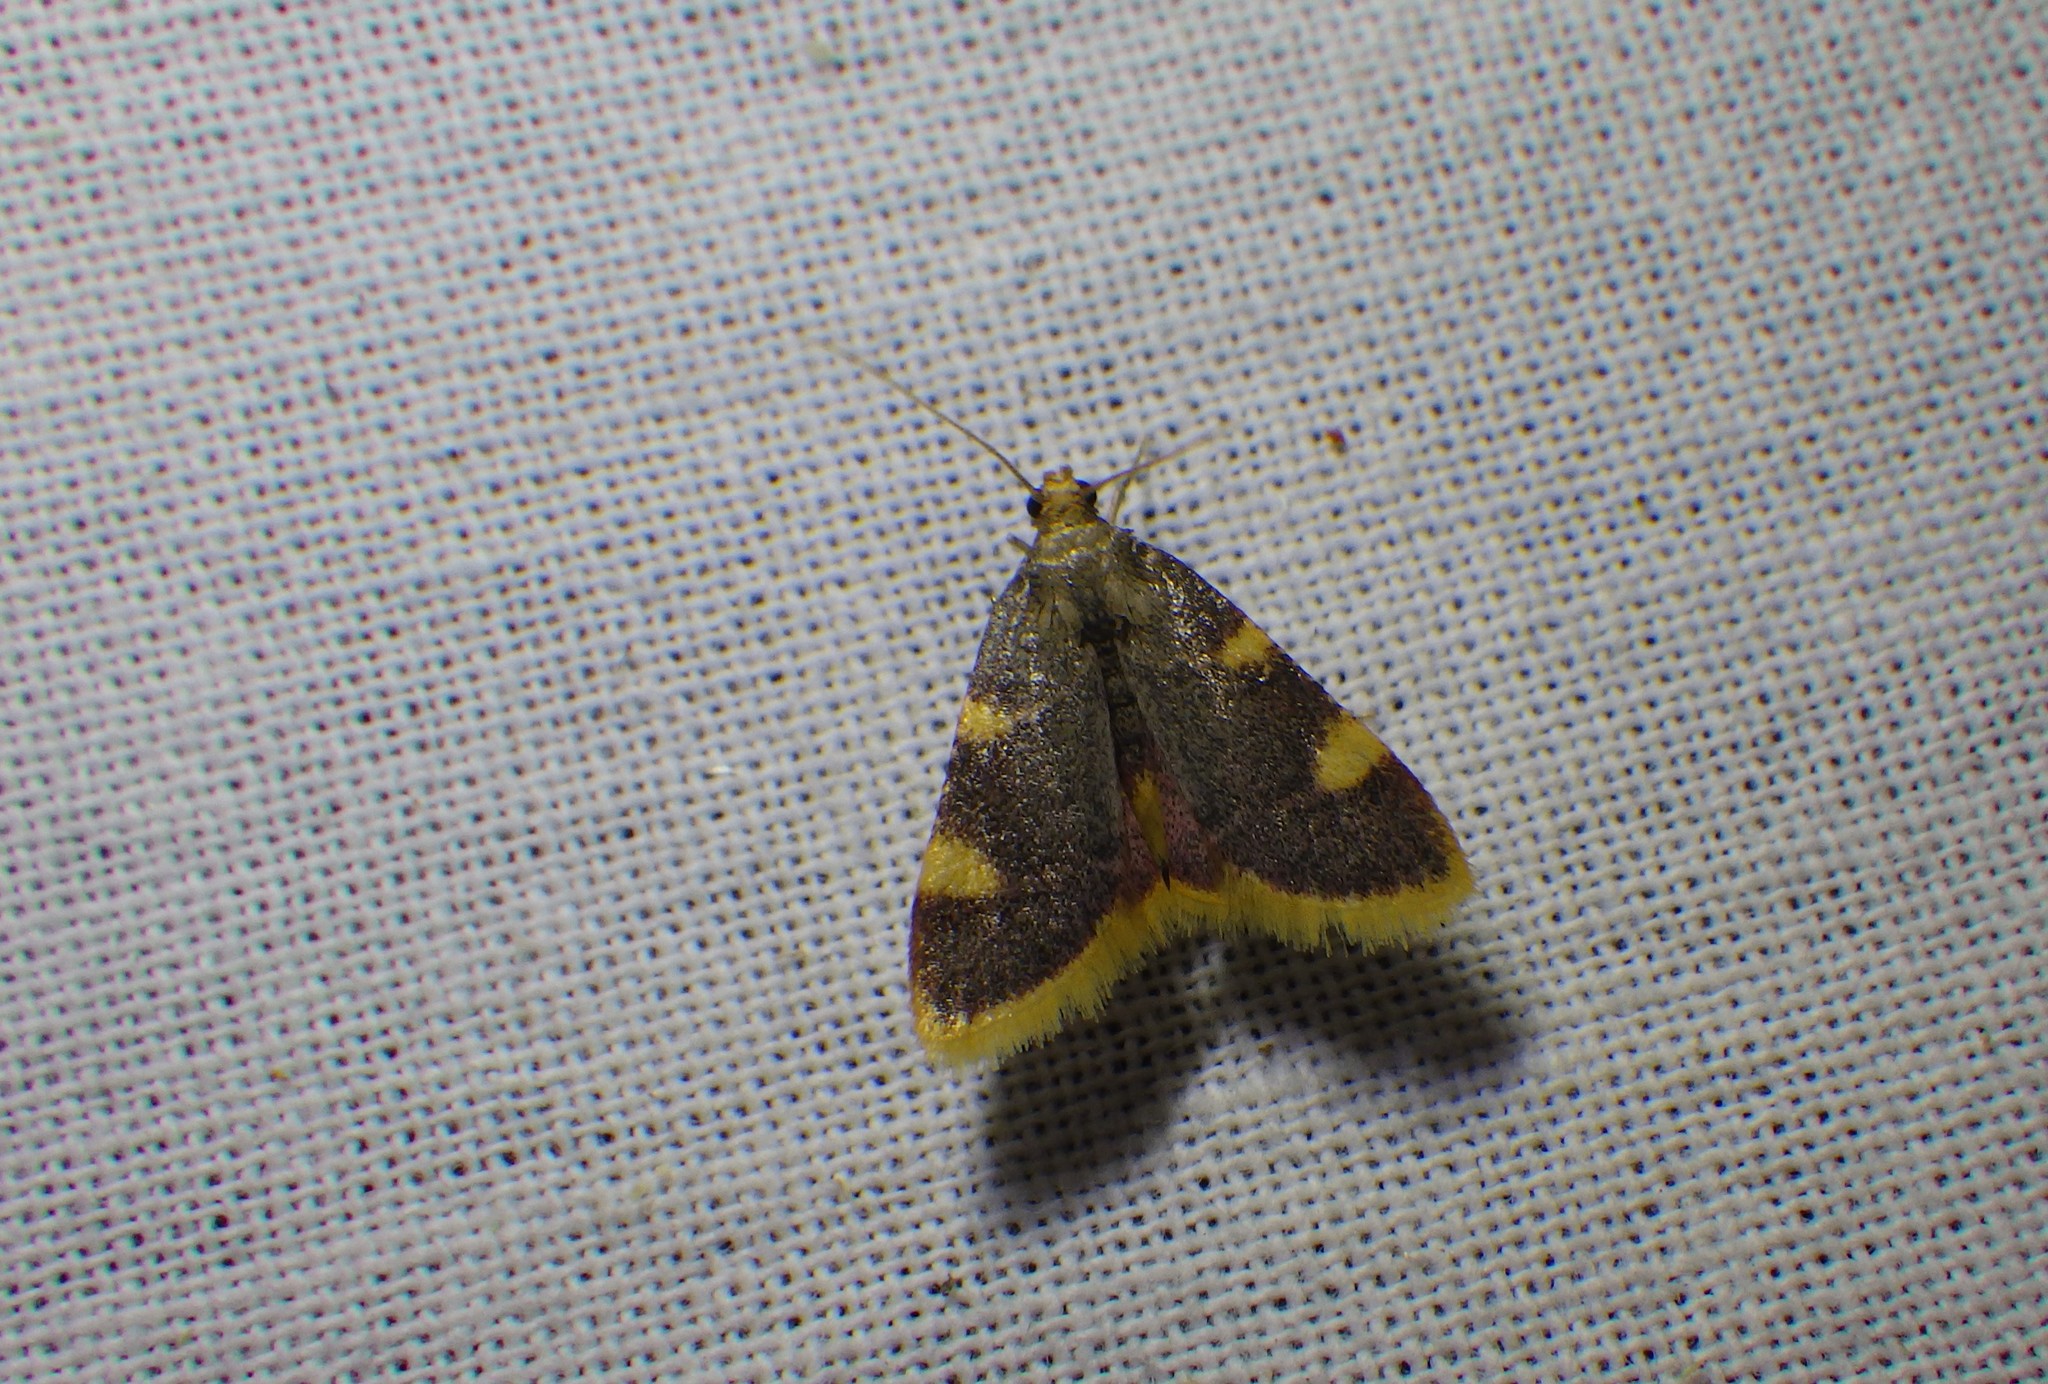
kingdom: Animalia
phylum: Arthropoda
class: Insecta
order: Lepidoptera
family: Pyralidae
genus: Hypsopygia
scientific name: Hypsopygia costalis
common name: Gold triangle
